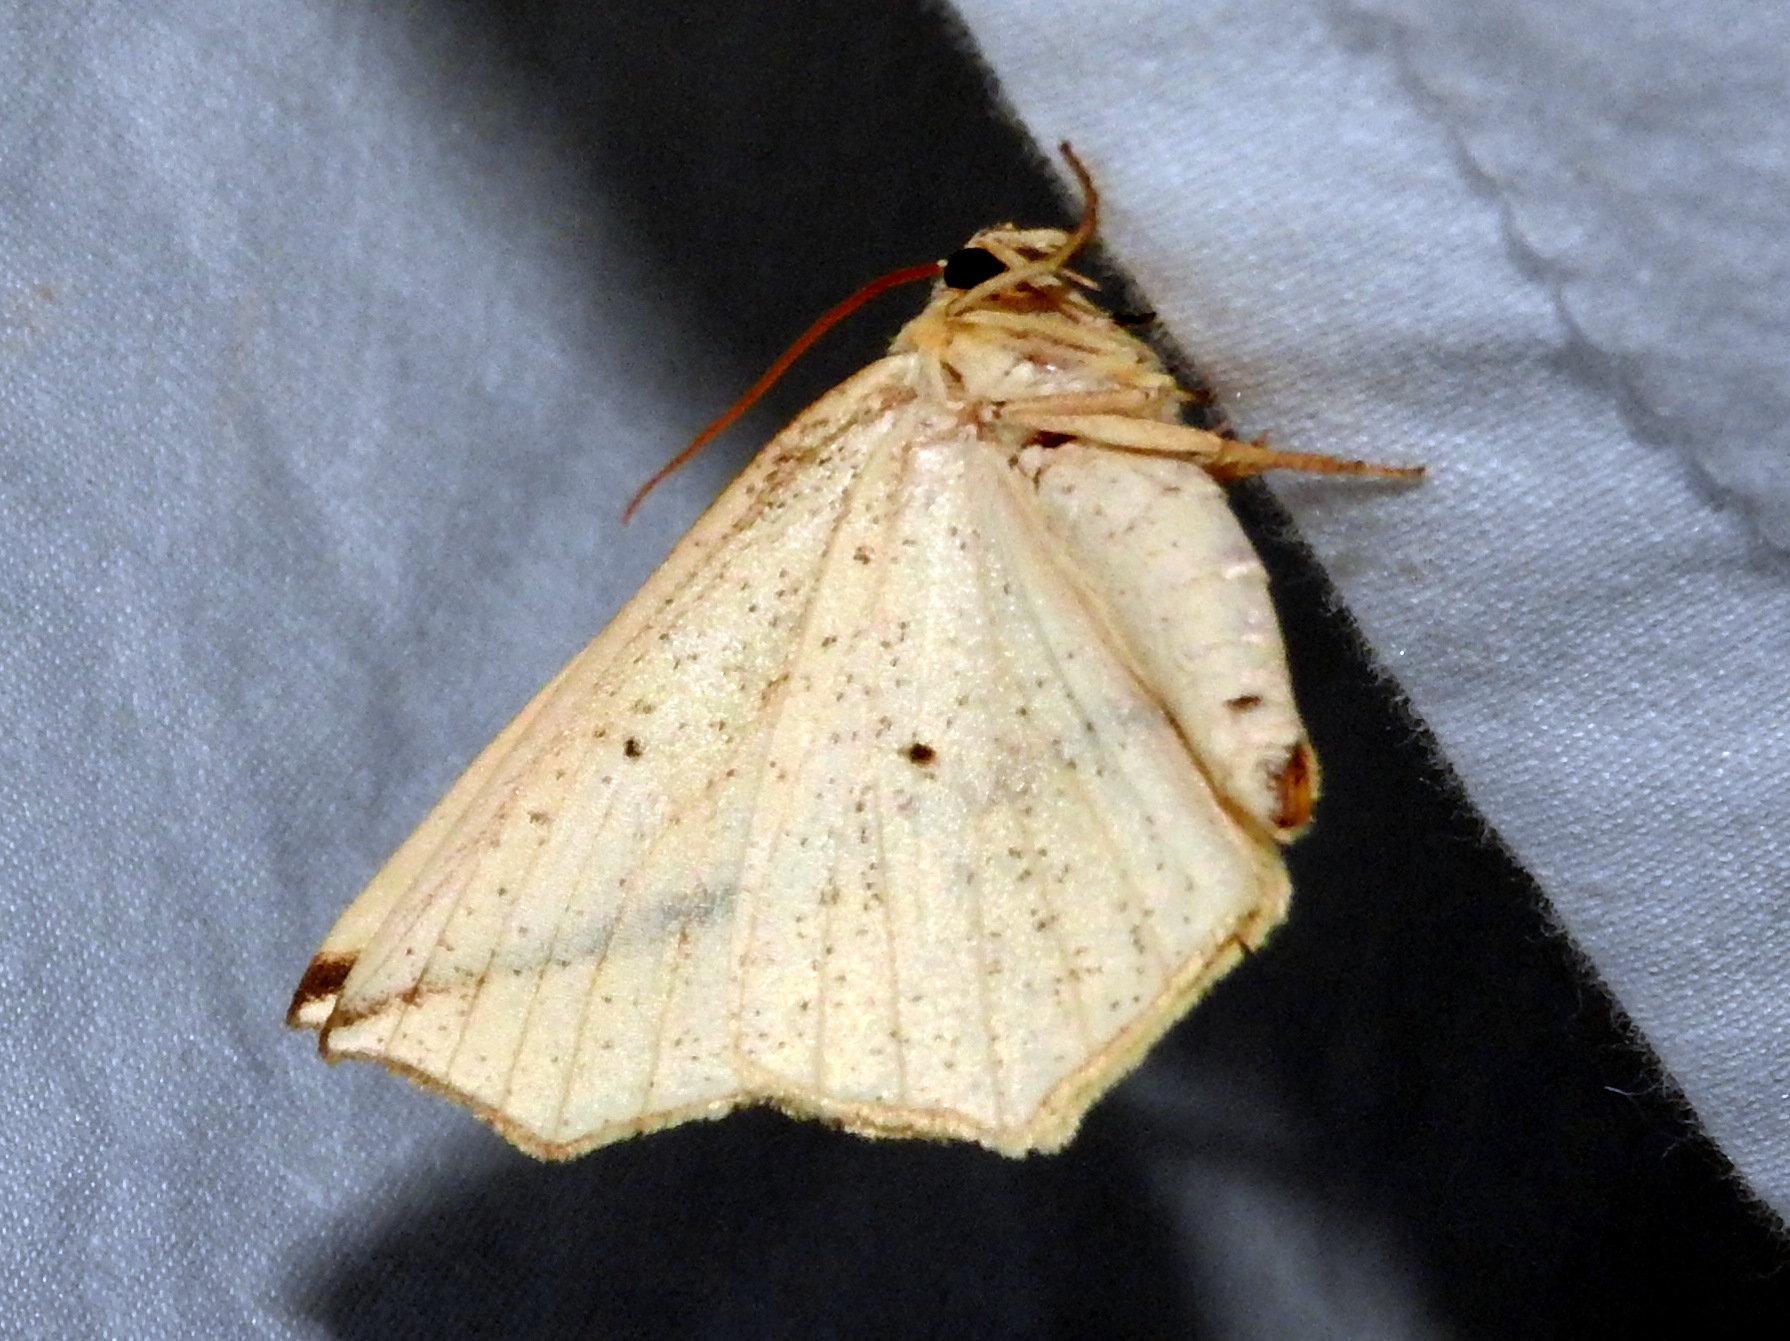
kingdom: Animalia
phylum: Arthropoda
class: Insecta
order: Lepidoptera
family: Geometridae
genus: Tetracis
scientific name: Tetracis crocallata
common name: Yellow slant-line
